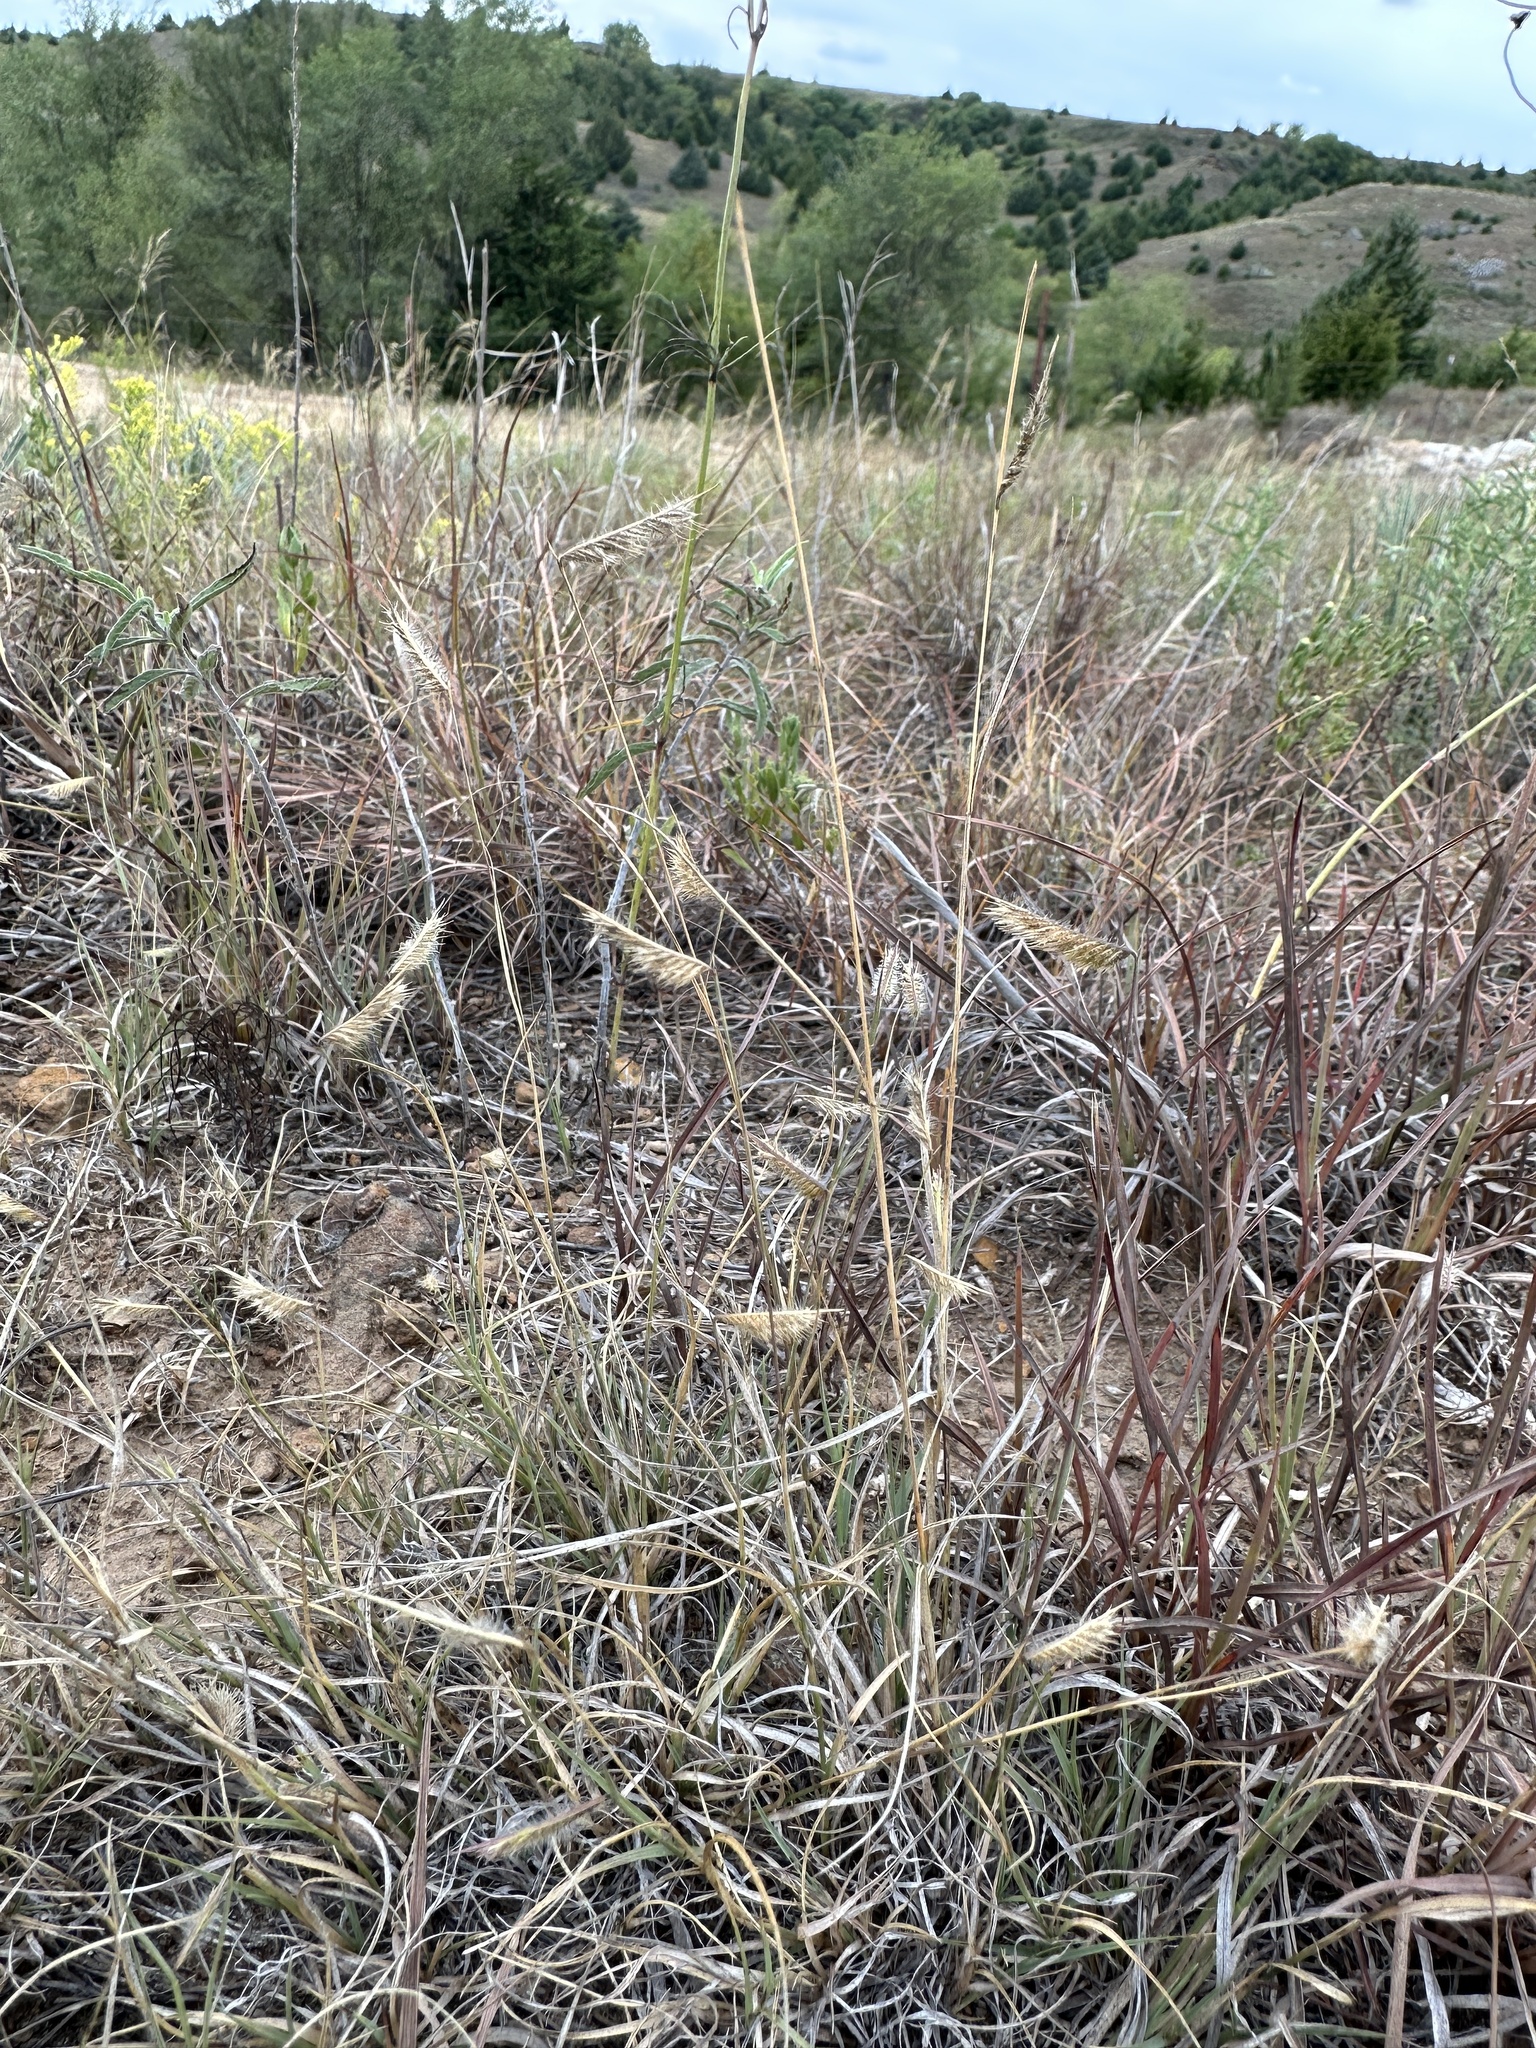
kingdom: Plantae
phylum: Tracheophyta
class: Liliopsida
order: Poales
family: Poaceae
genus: Bouteloua
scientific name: Bouteloua hirsuta
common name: Hairy grama
